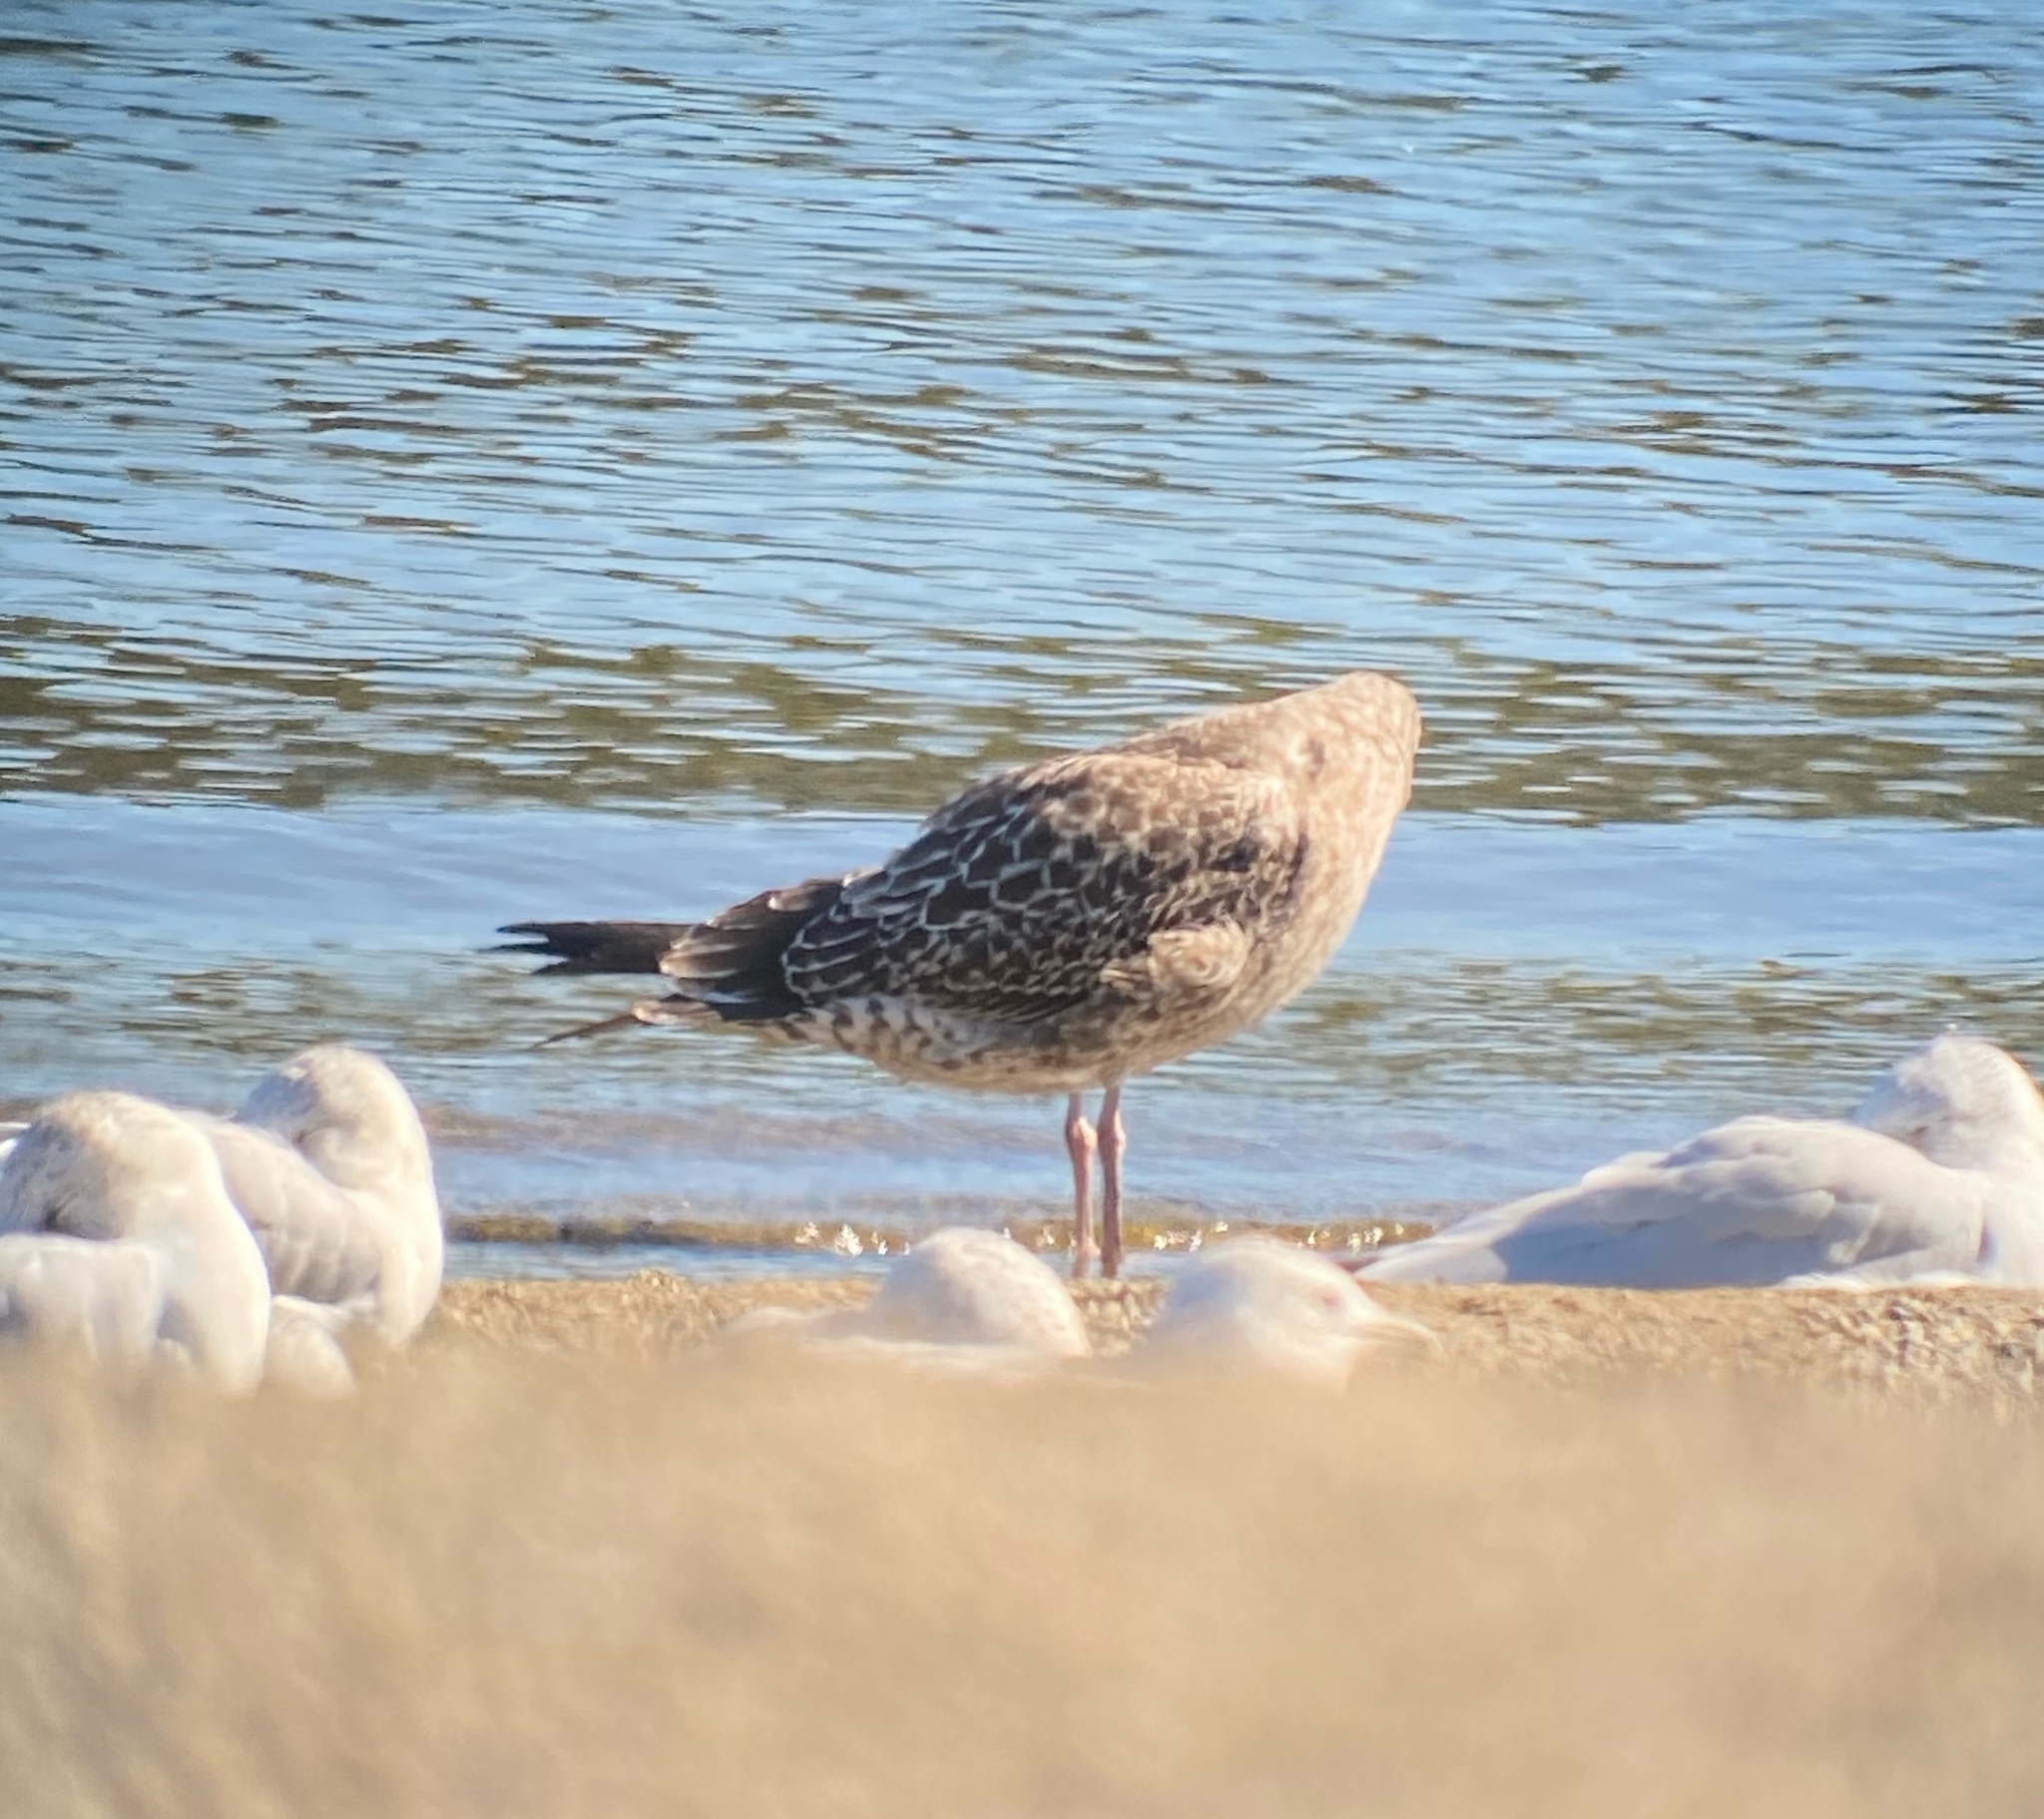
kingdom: Animalia
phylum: Chordata
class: Aves
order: Charadriiformes
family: Laridae
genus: Larus
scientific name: Larus argentatus
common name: Herring gull
